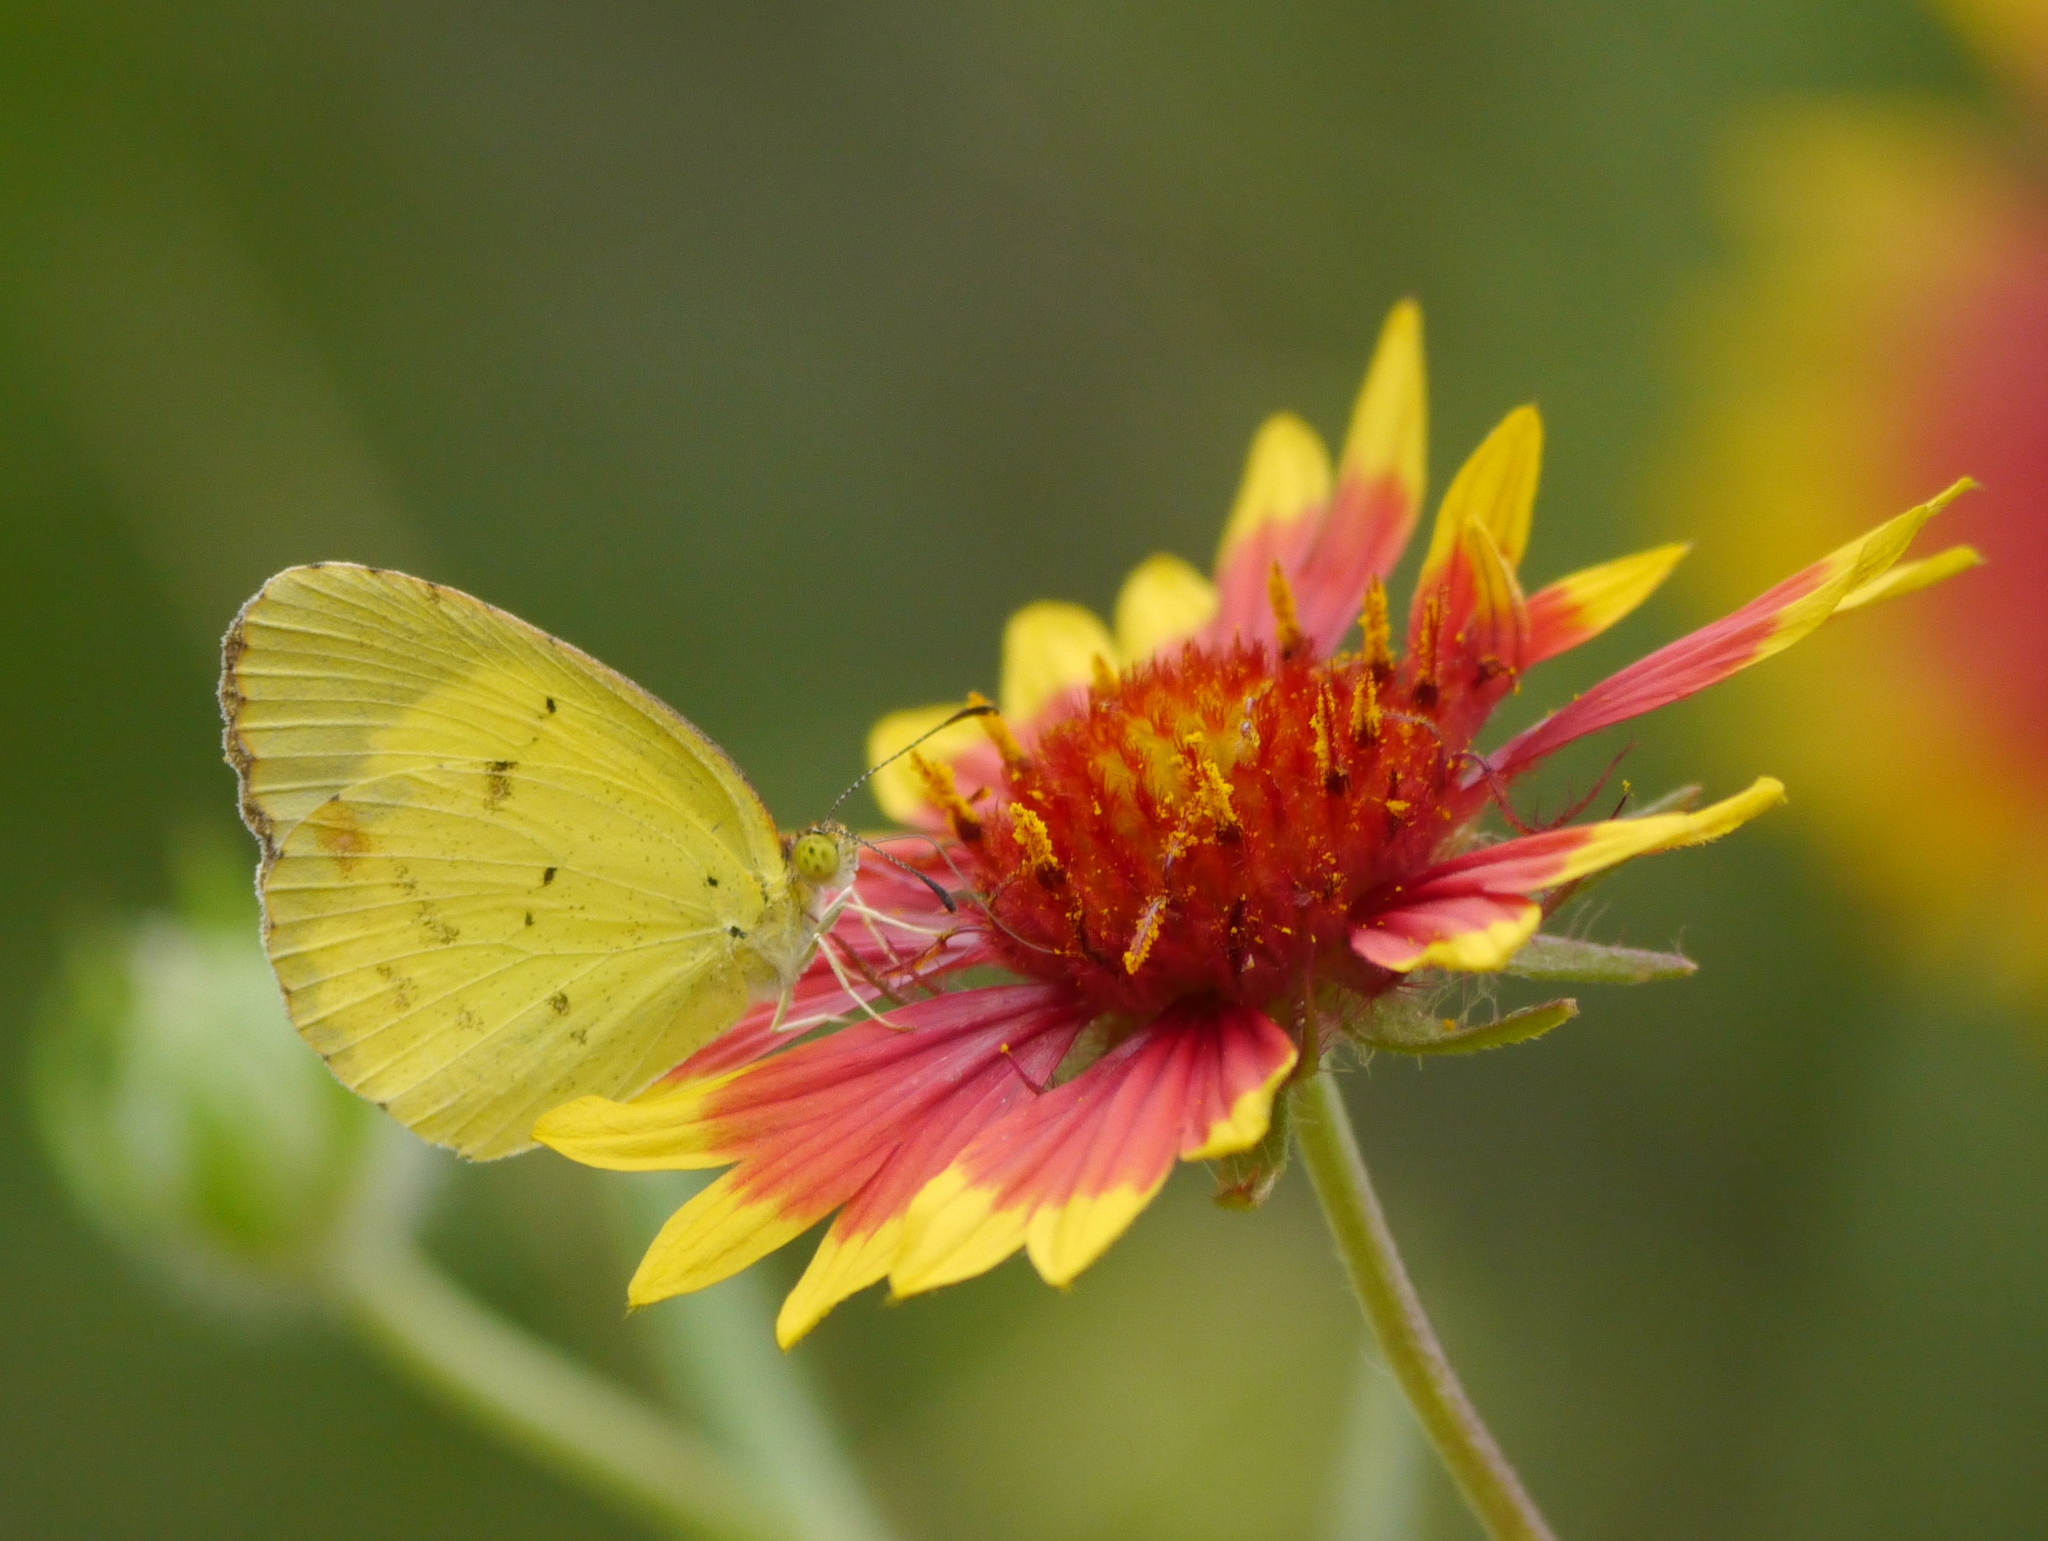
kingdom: Animalia
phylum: Arthropoda
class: Insecta
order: Lepidoptera
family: Pieridae
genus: Pyrisitia
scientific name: Pyrisitia lisa
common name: Little yellow
